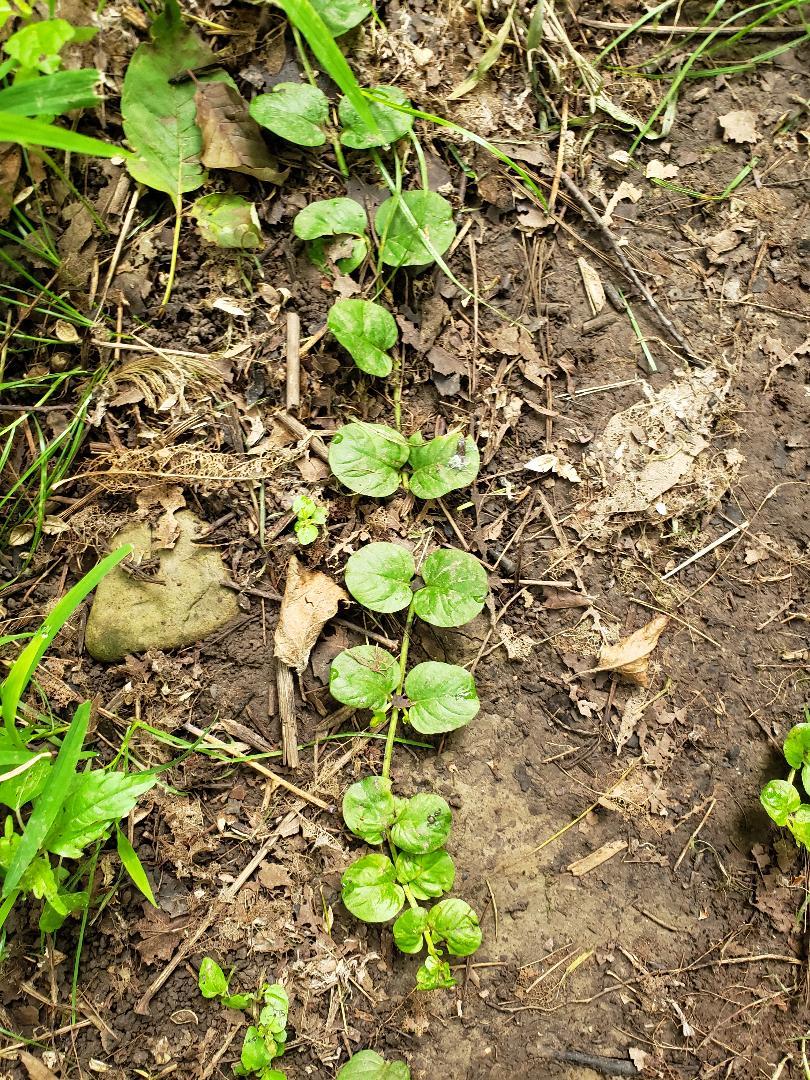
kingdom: Plantae
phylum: Tracheophyta
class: Magnoliopsida
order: Ericales
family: Primulaceae
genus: Lysimachia
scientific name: Lysimachia nummularia
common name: Moneywort
